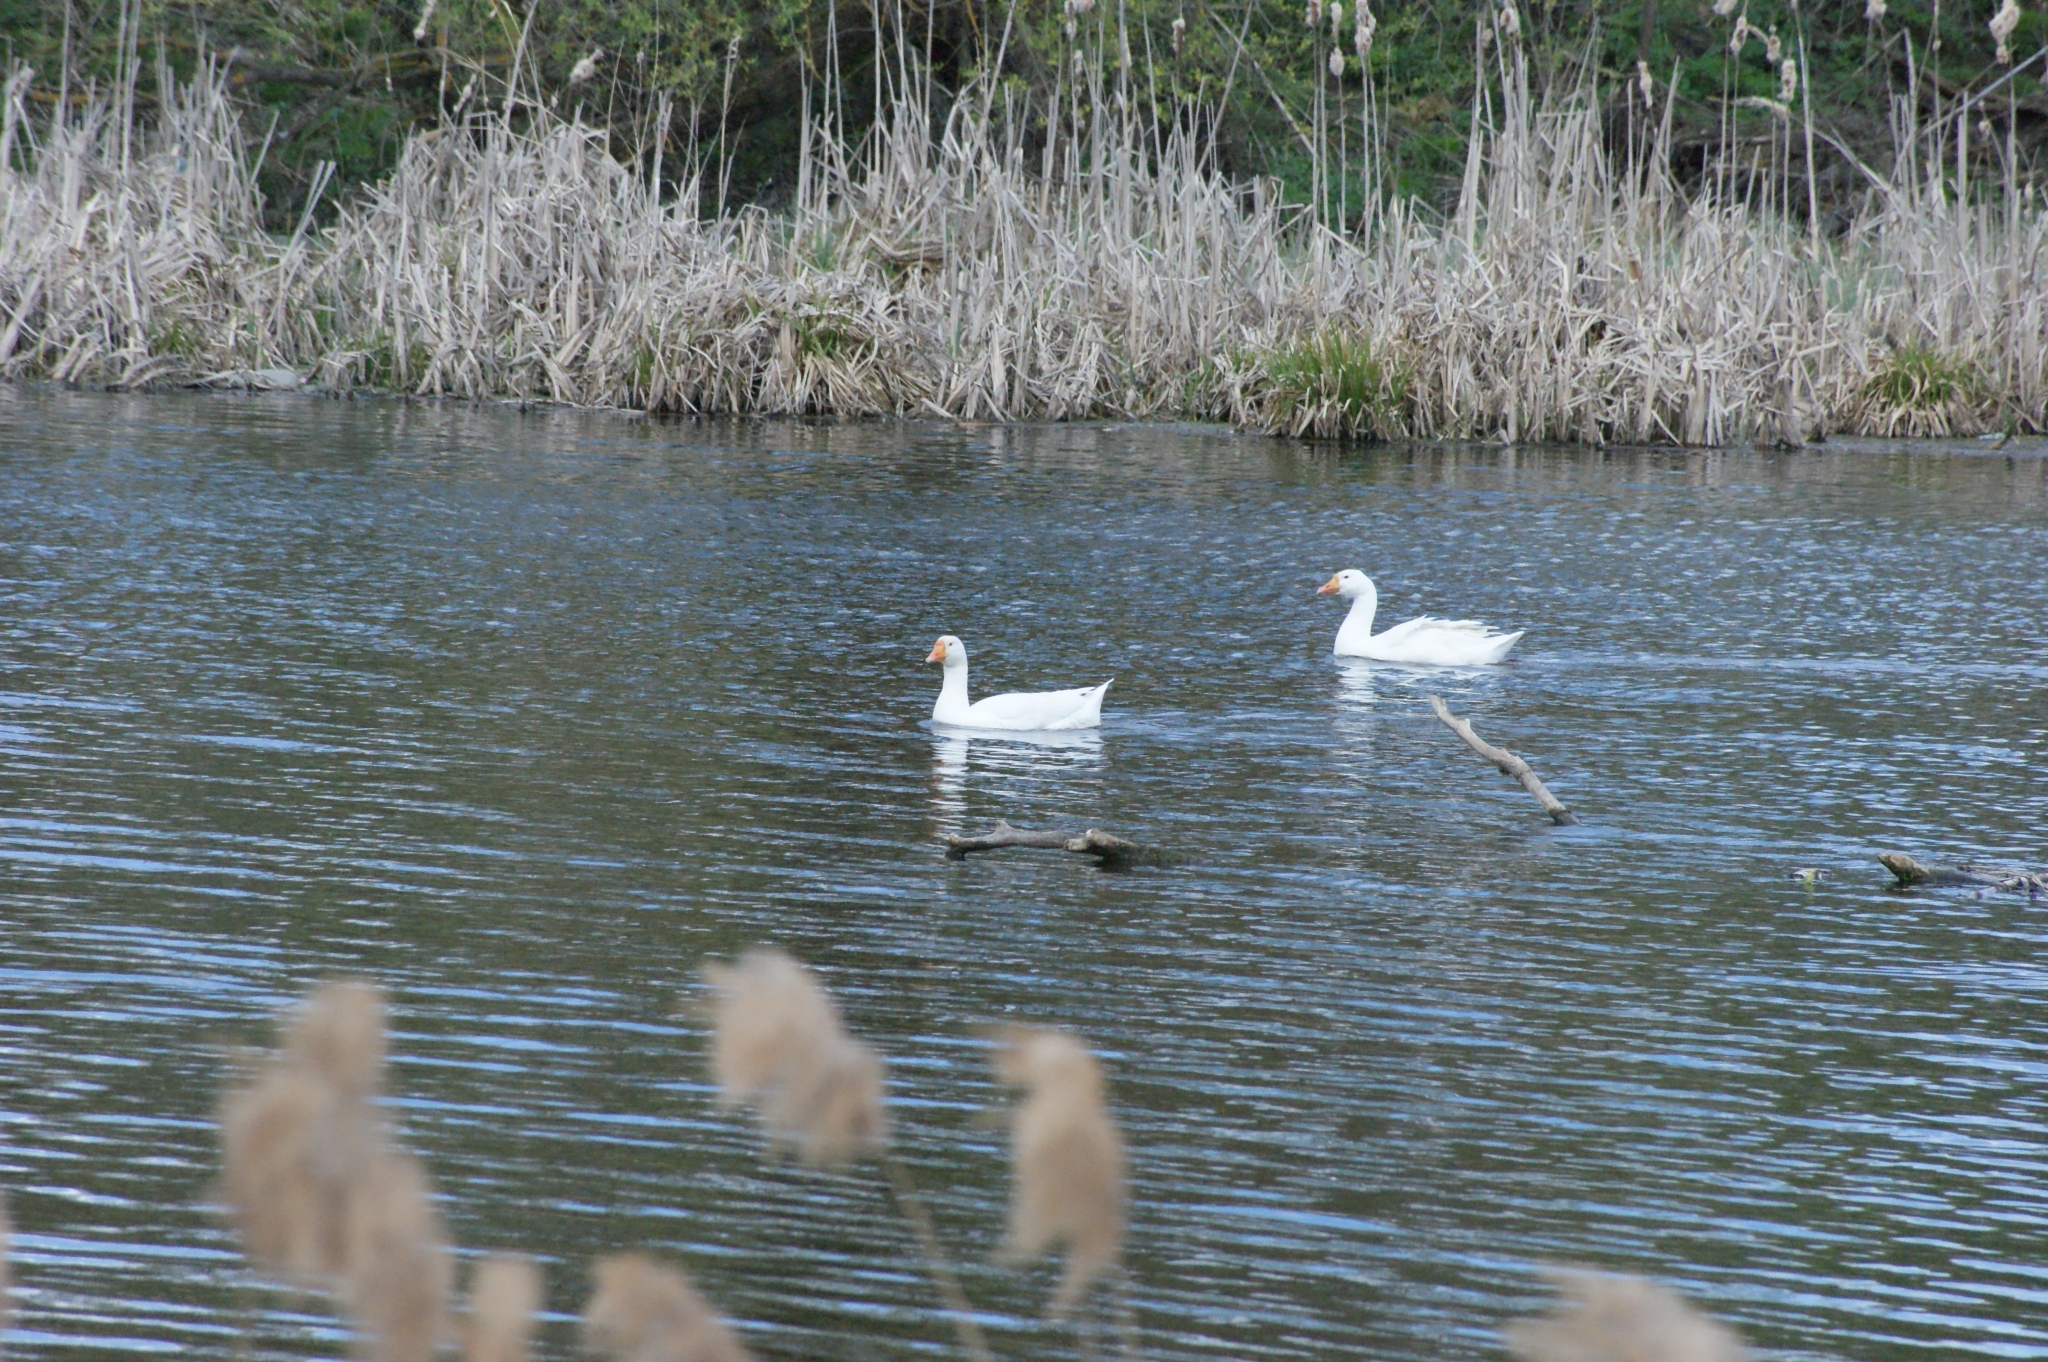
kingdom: Animalia
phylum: Chordata
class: Aves
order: Anseriformes
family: Anatidae
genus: Anser
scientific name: Anser anser
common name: Greylag goose
